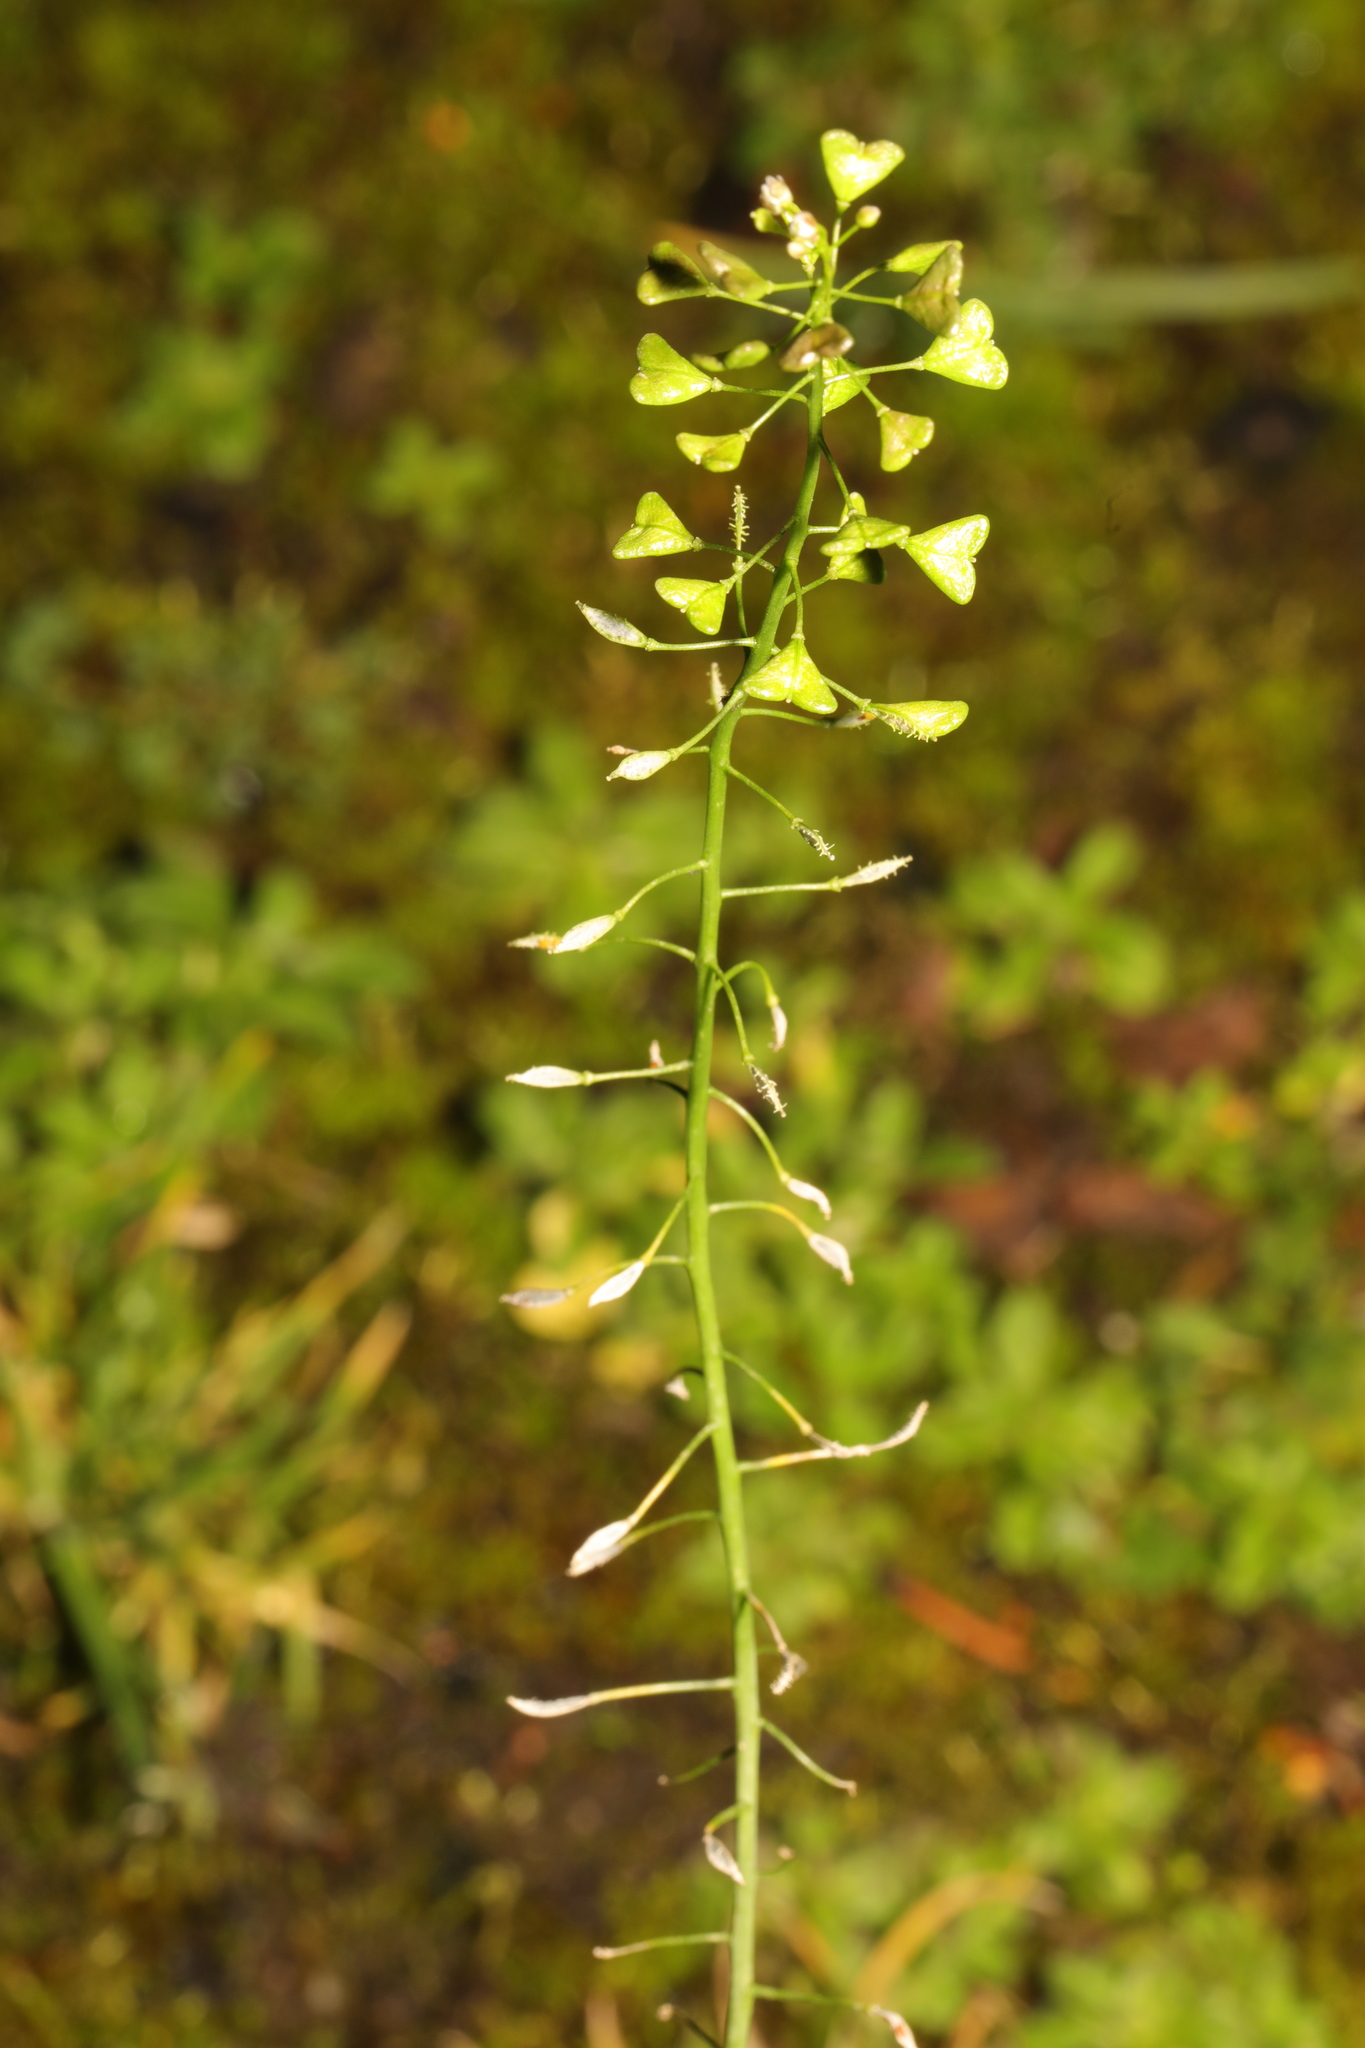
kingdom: Plantae
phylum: Tracheophyta
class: Magnoliopsida
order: Brassicales
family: Brassicaceae
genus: Capsella
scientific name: Capsella bursa-pastoris
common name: Shepherd's purse
